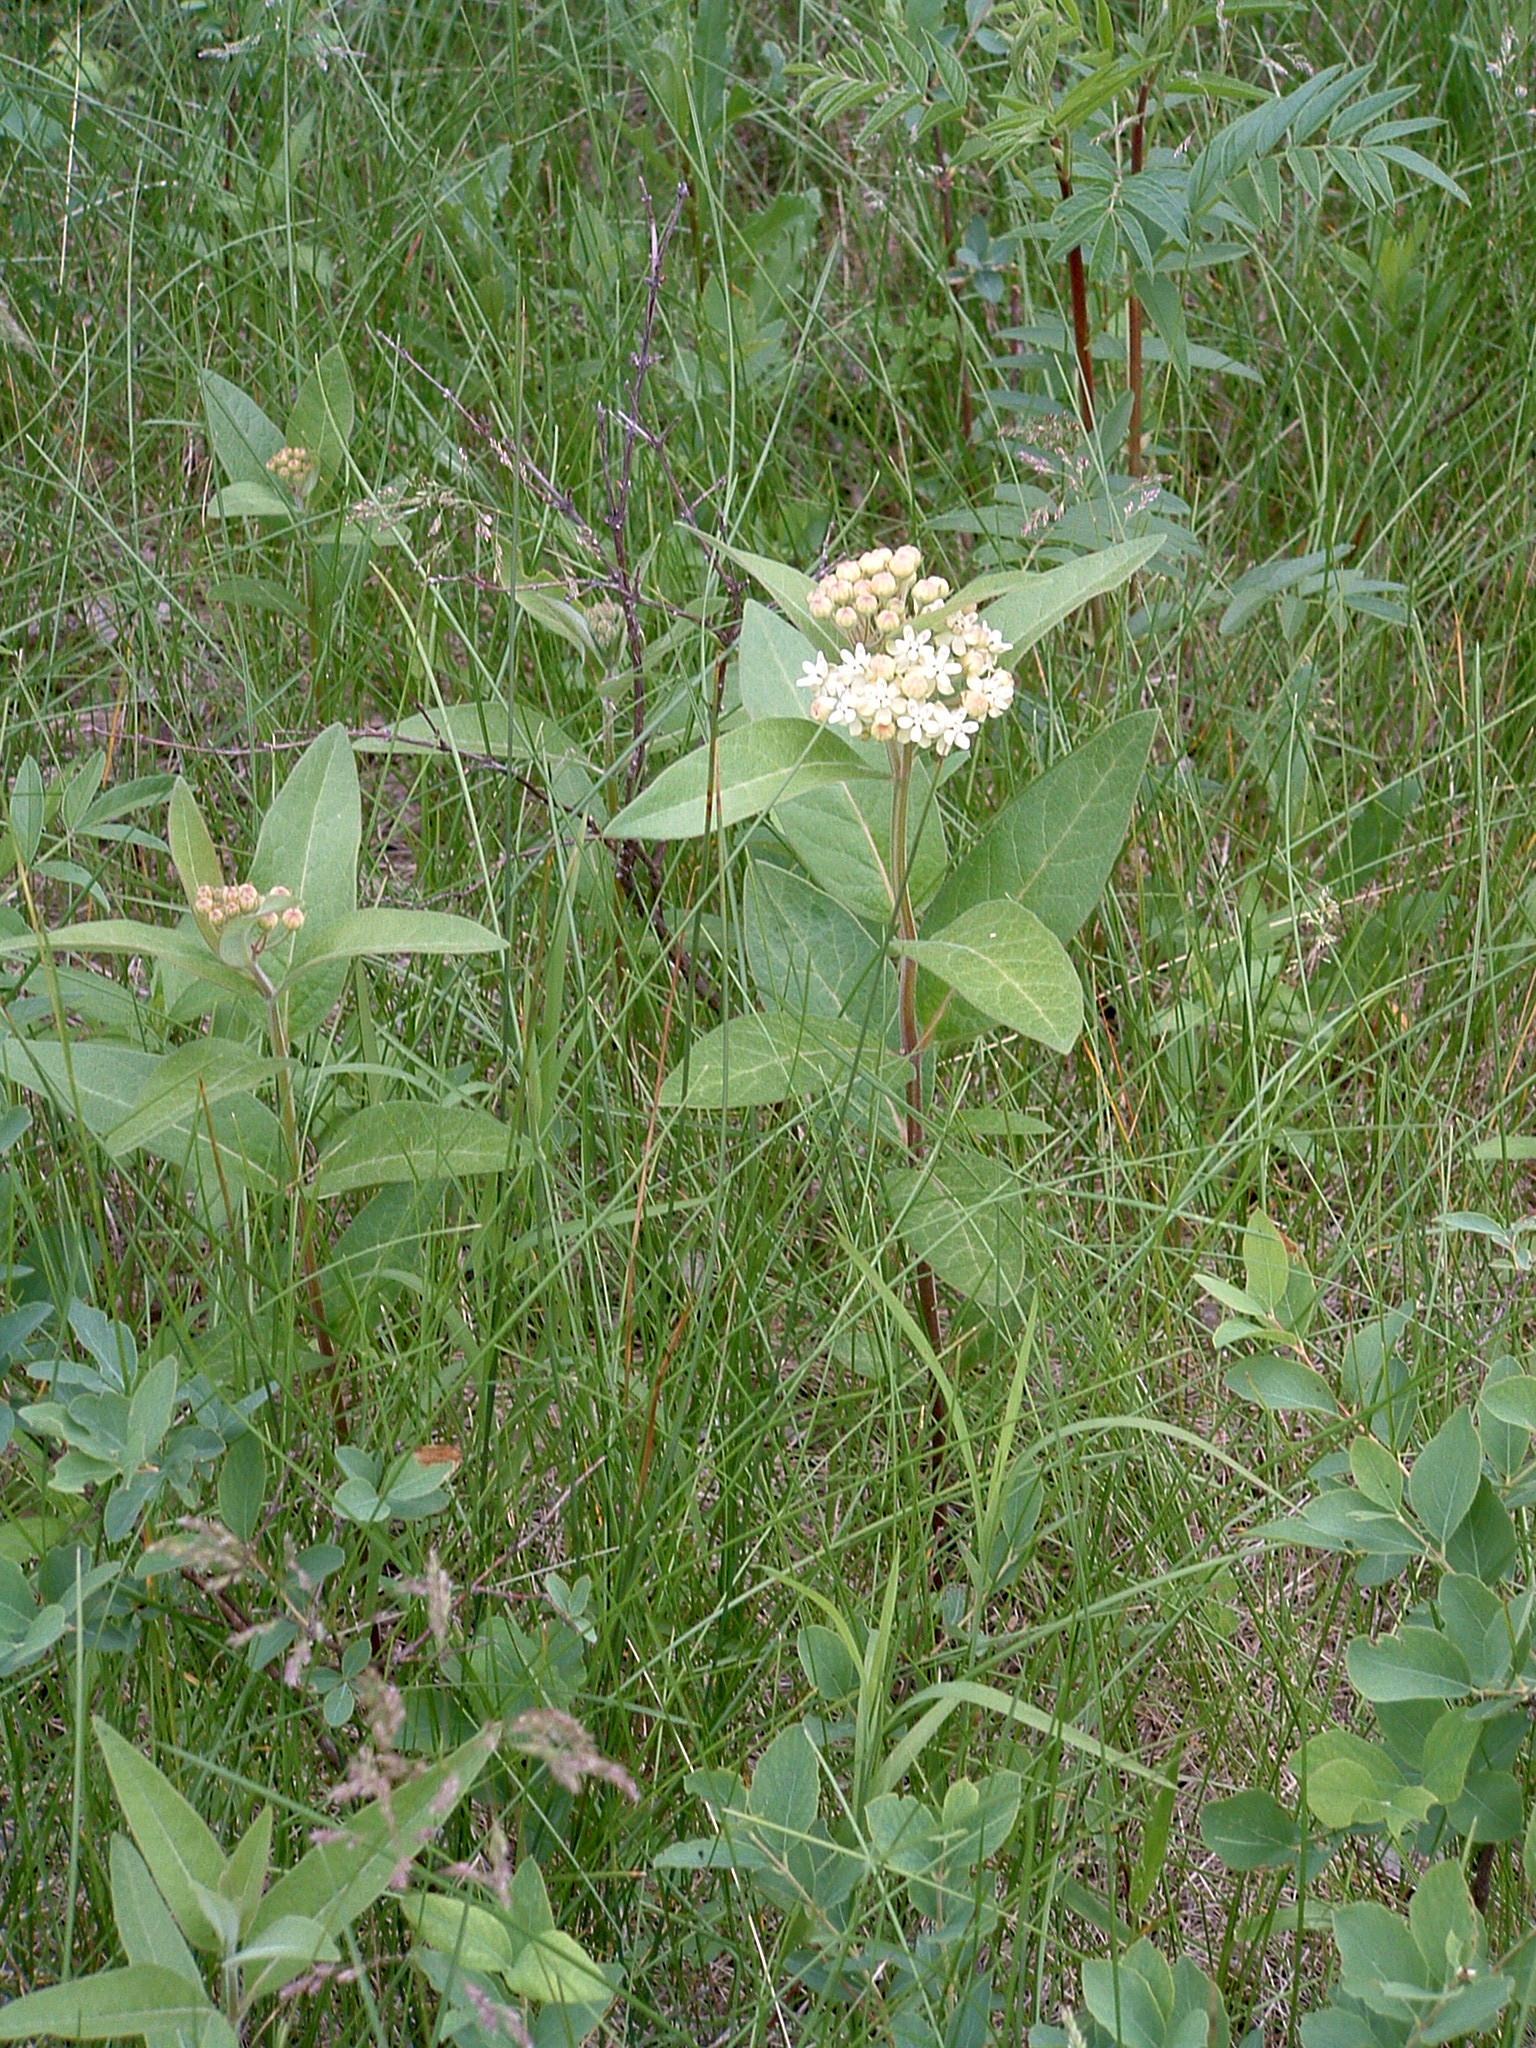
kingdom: Plantae
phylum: Tracheophyta
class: Magnoliopsida
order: Gentianales
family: Apocynaceae
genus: Asclepias
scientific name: Asclepias ovalifolia
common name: Dwarf milkweed
